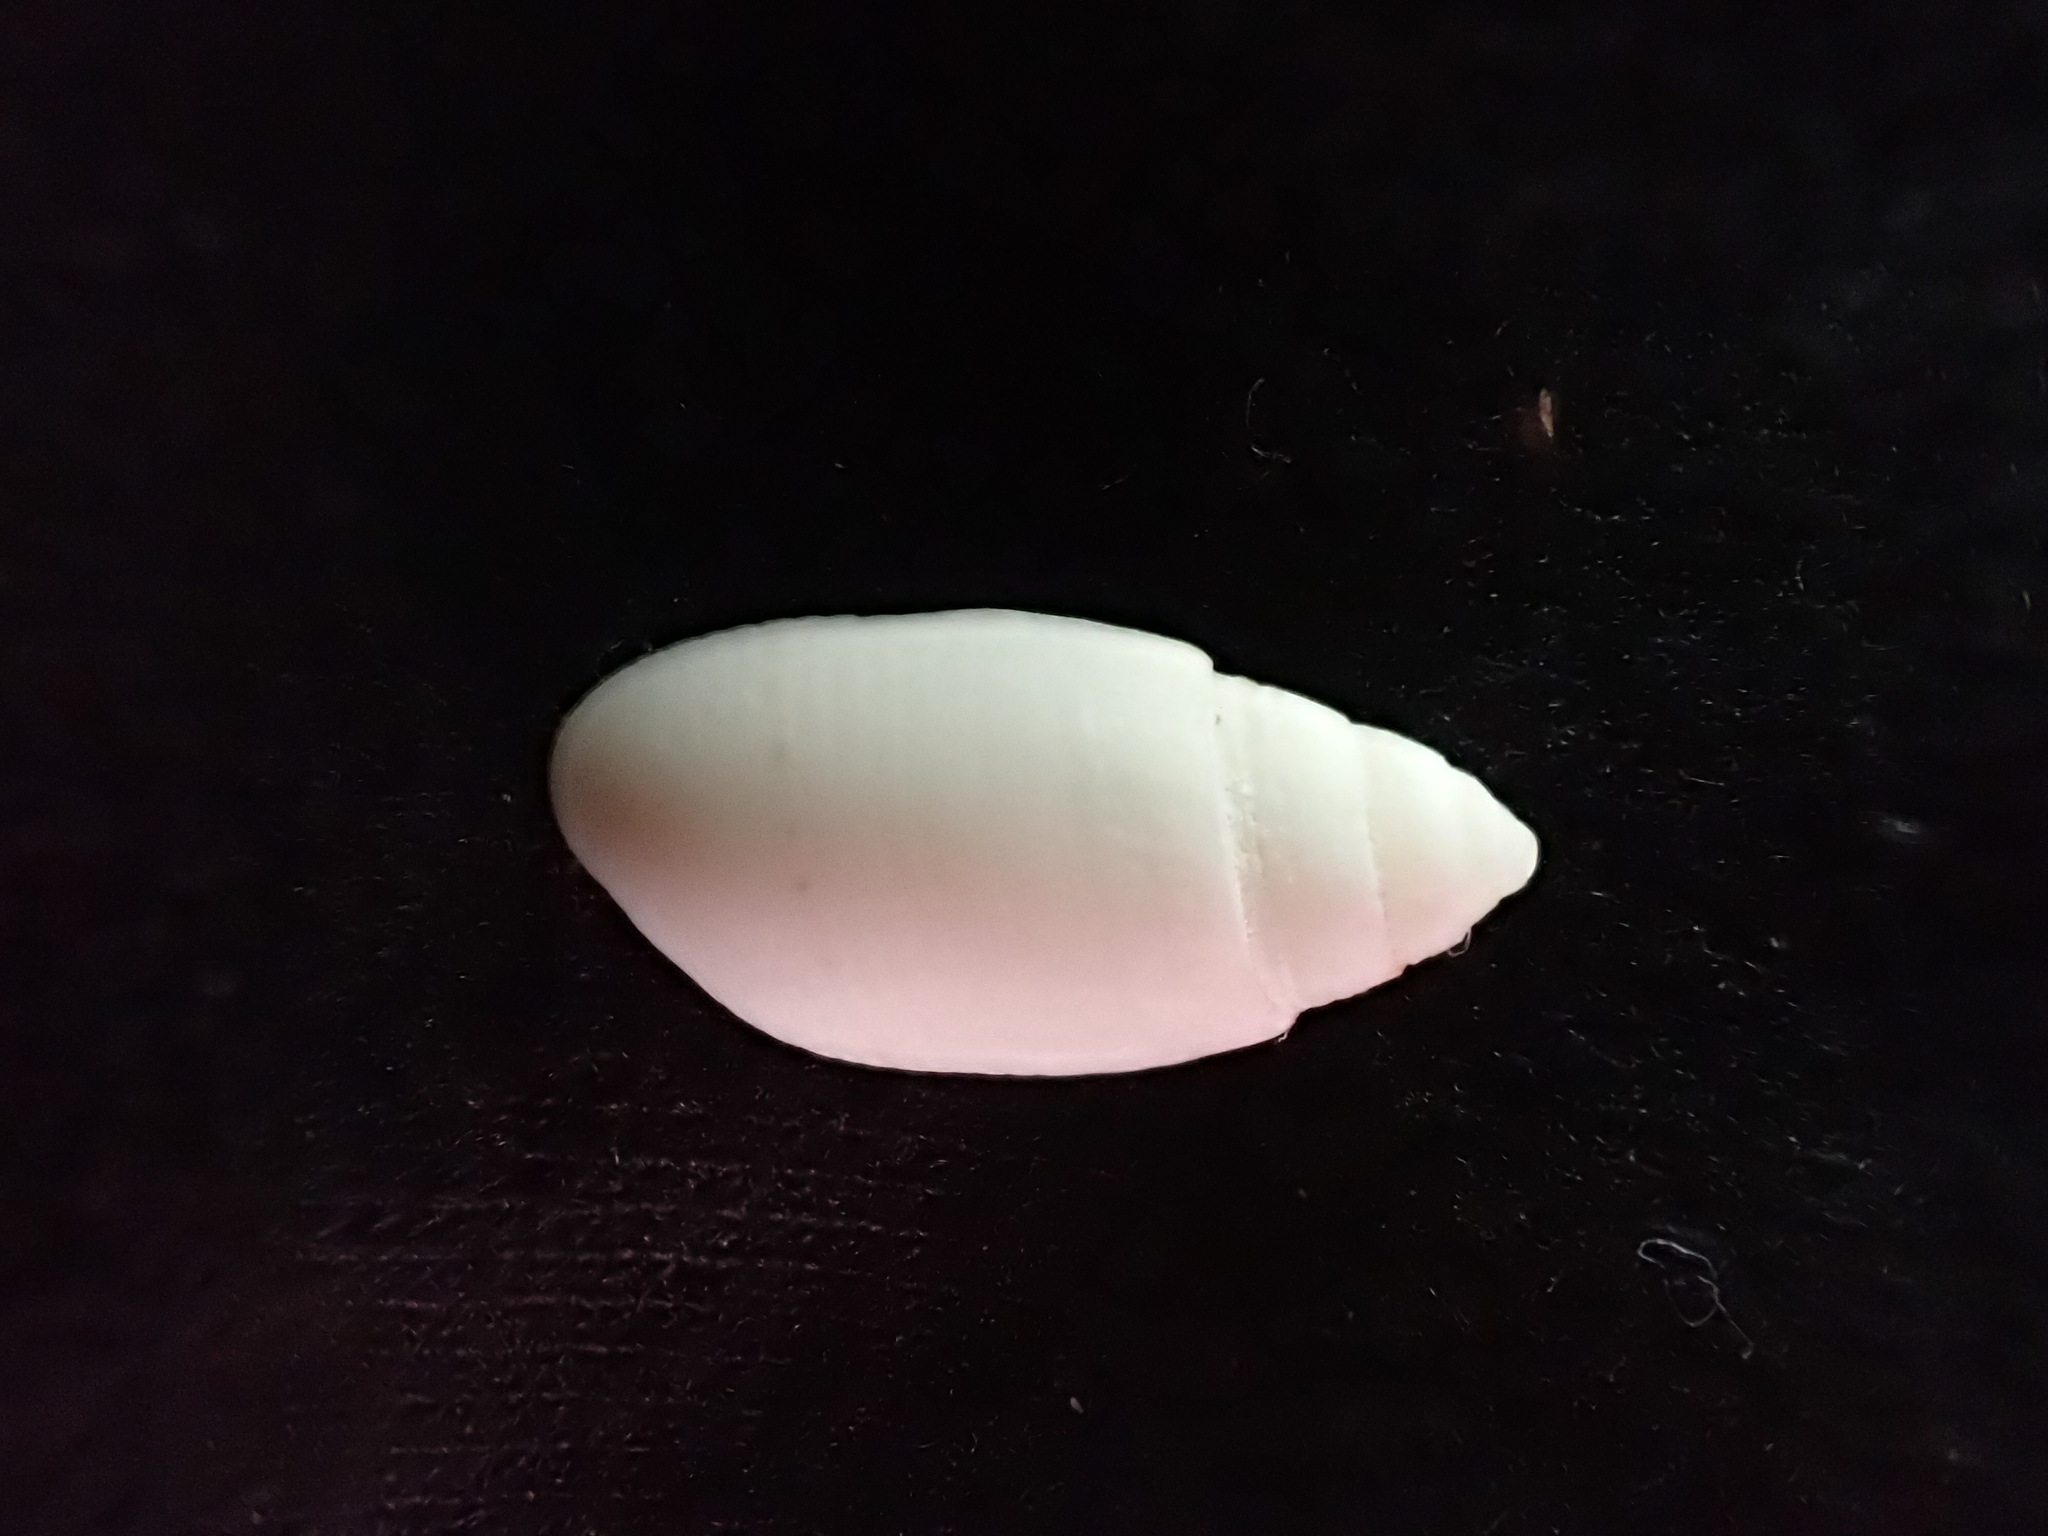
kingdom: Animalia
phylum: Mollusca
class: Gastropoda
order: Cephalaspidea
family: Acteonidae
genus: Pupa
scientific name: Pupa affinis
